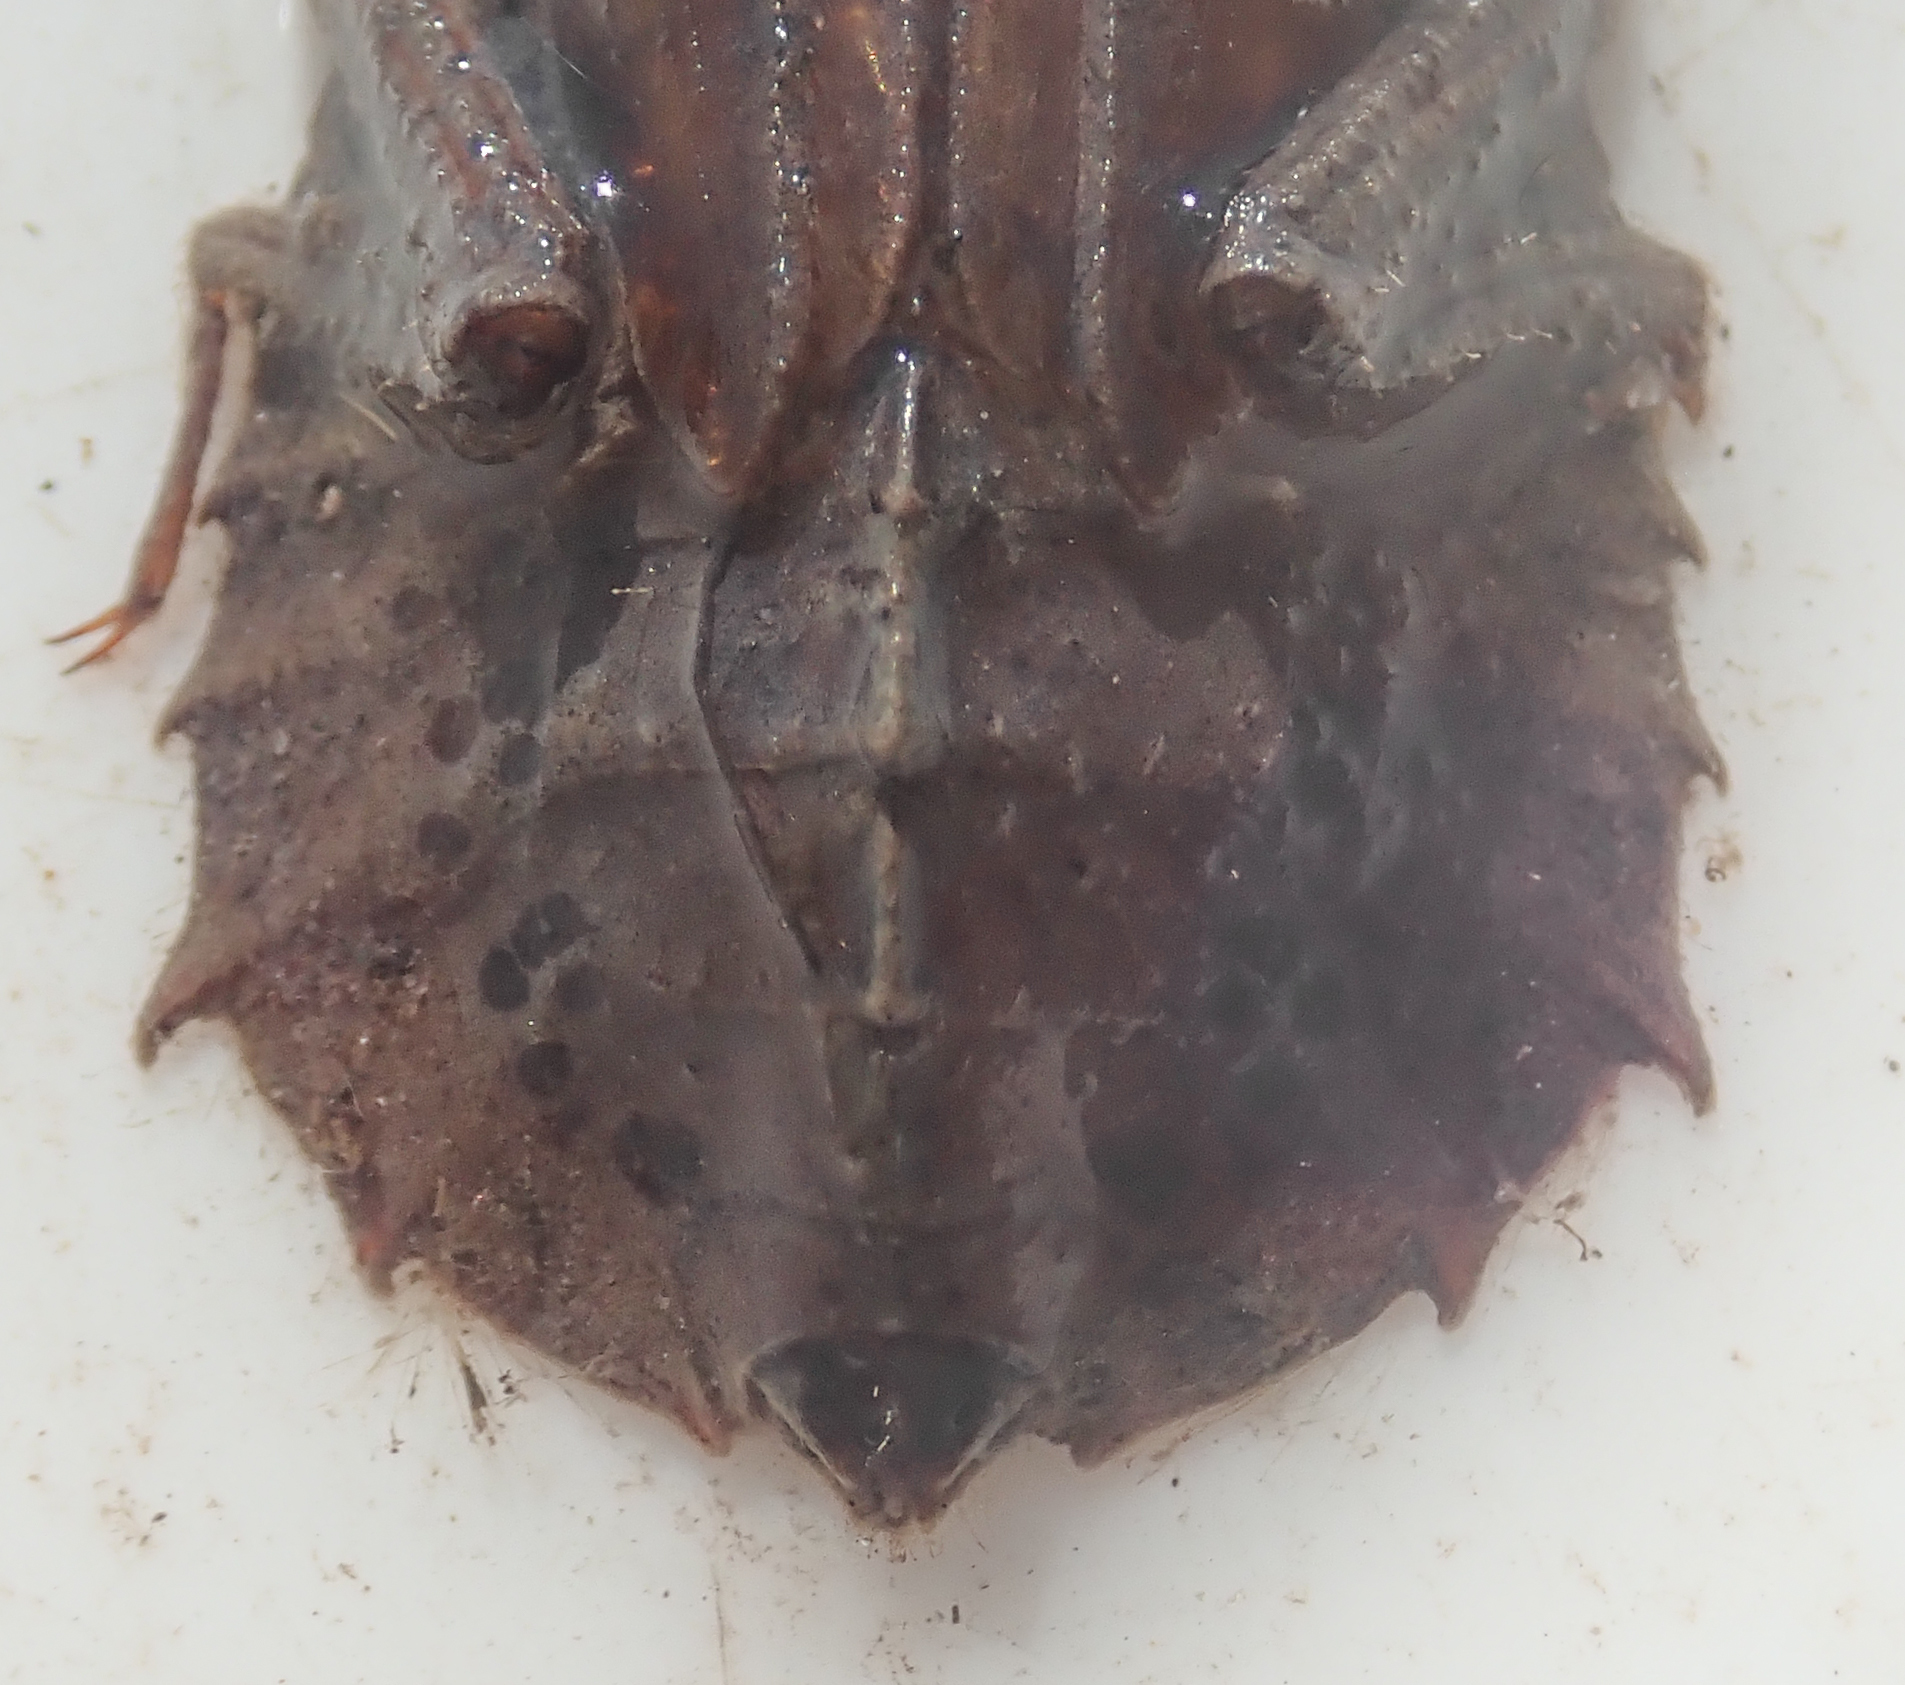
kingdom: Animalia
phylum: Arthropoda
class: Insecta
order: Odonata
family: Gomphidae
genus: Ictinogomphus
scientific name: Ictinogomphus ferox
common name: Common tiger
